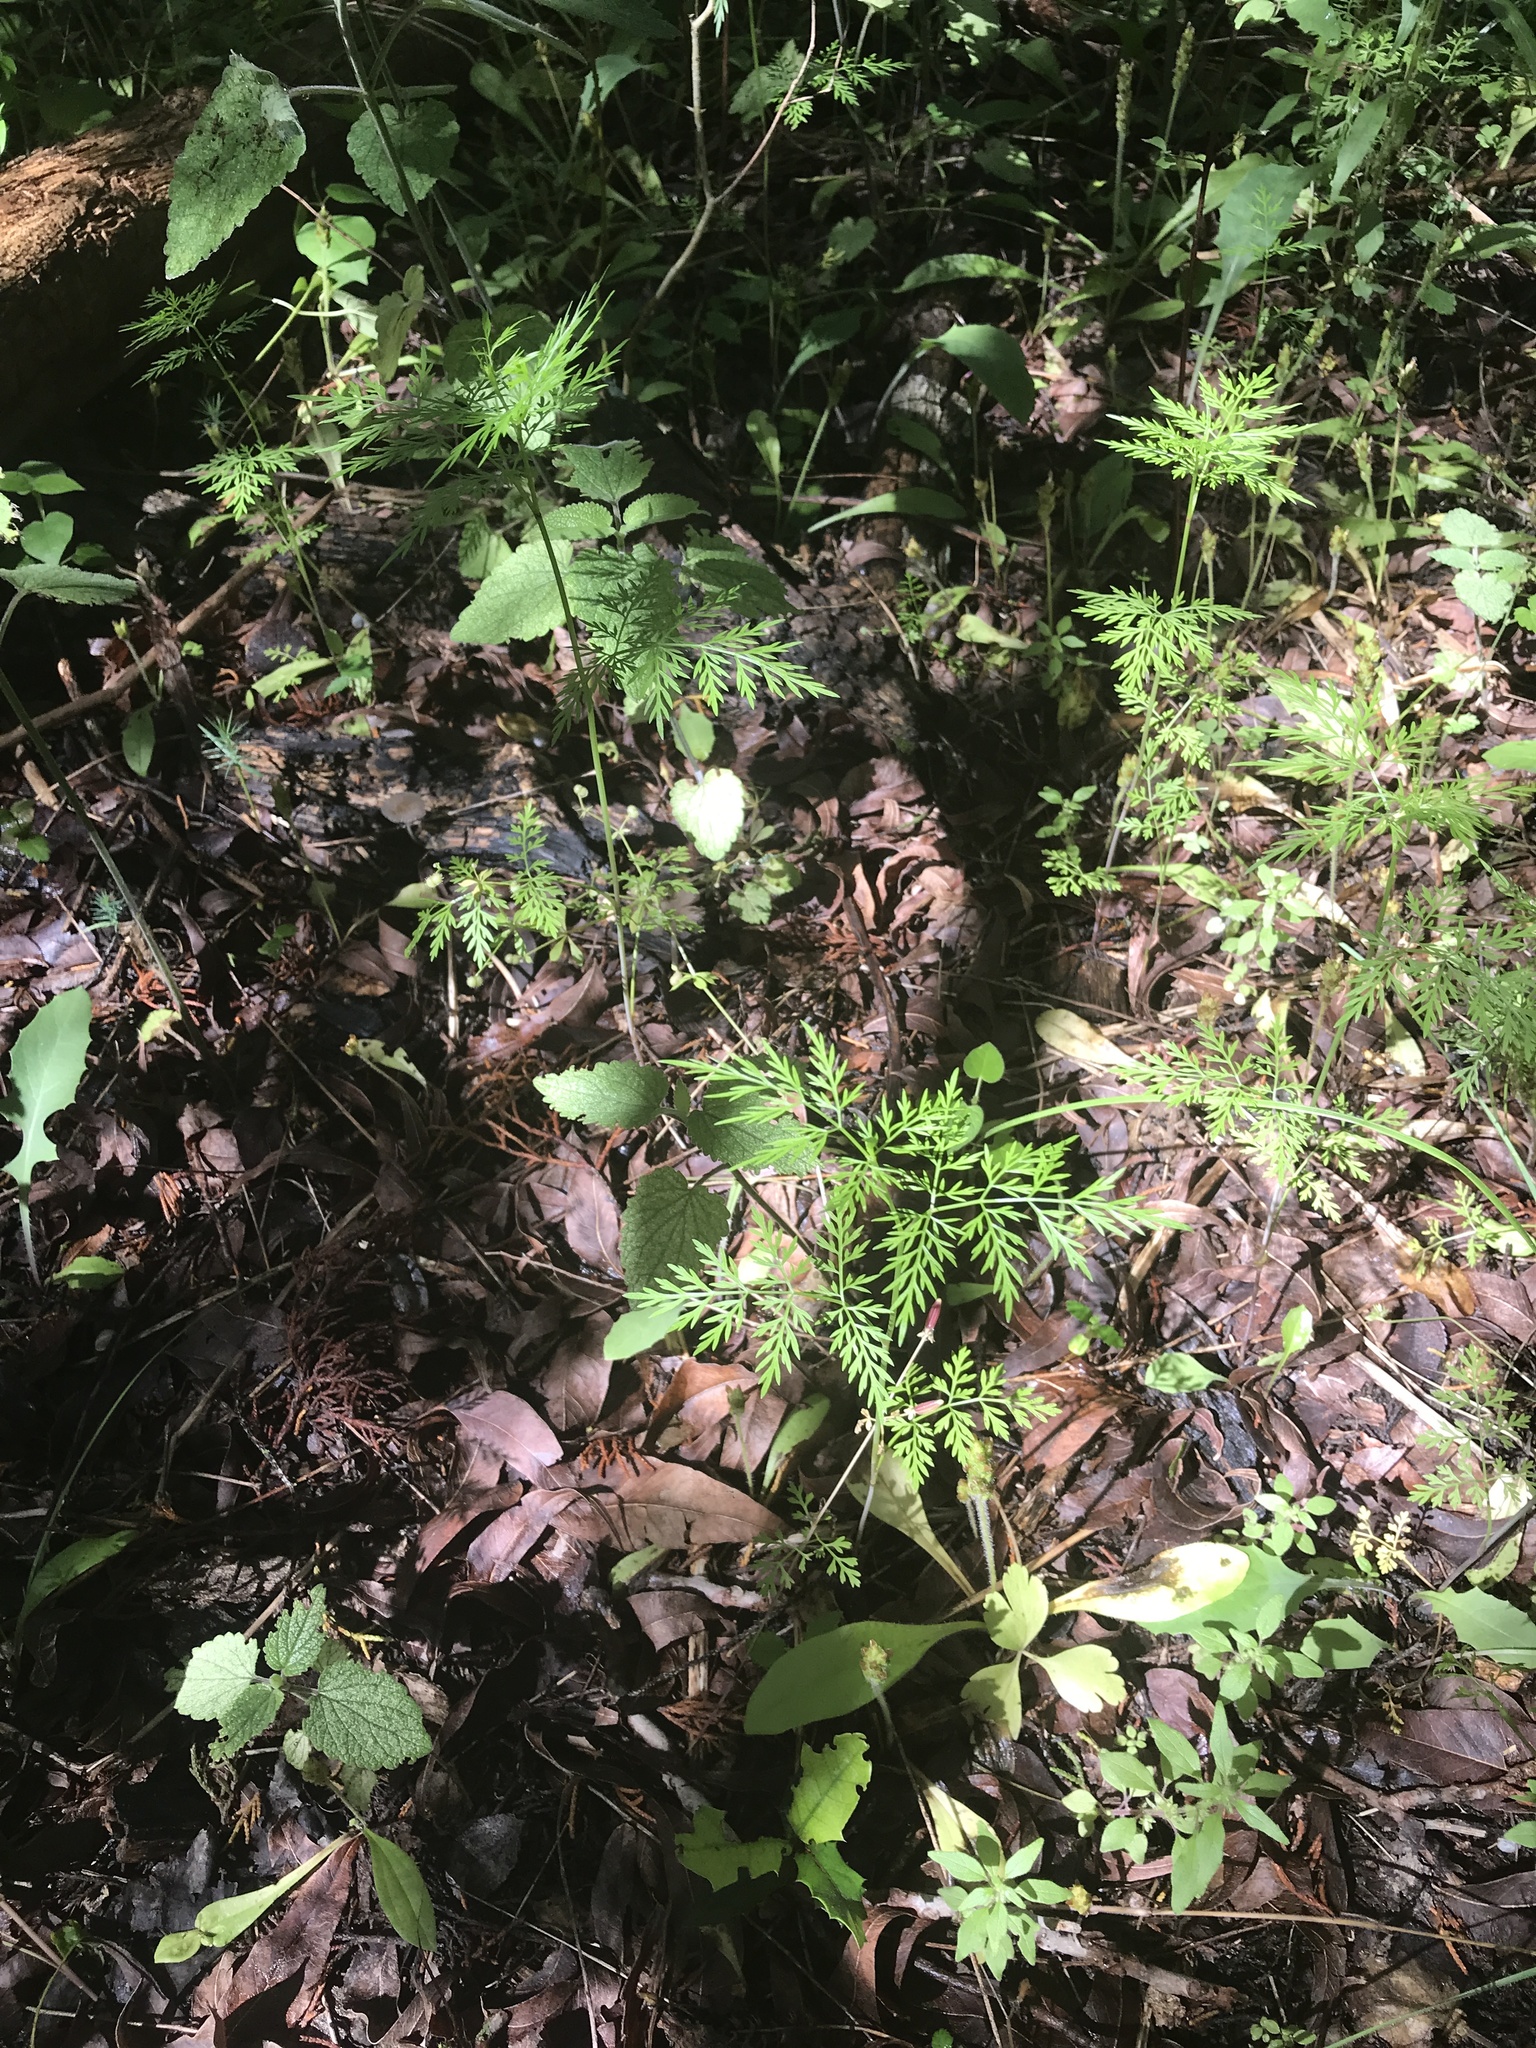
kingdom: Plantae
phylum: Tracheophyta
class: Magnoliopsida
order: Apiales
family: Apiaceae
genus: Trepocarpus
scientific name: Trepocarpus aethusae
